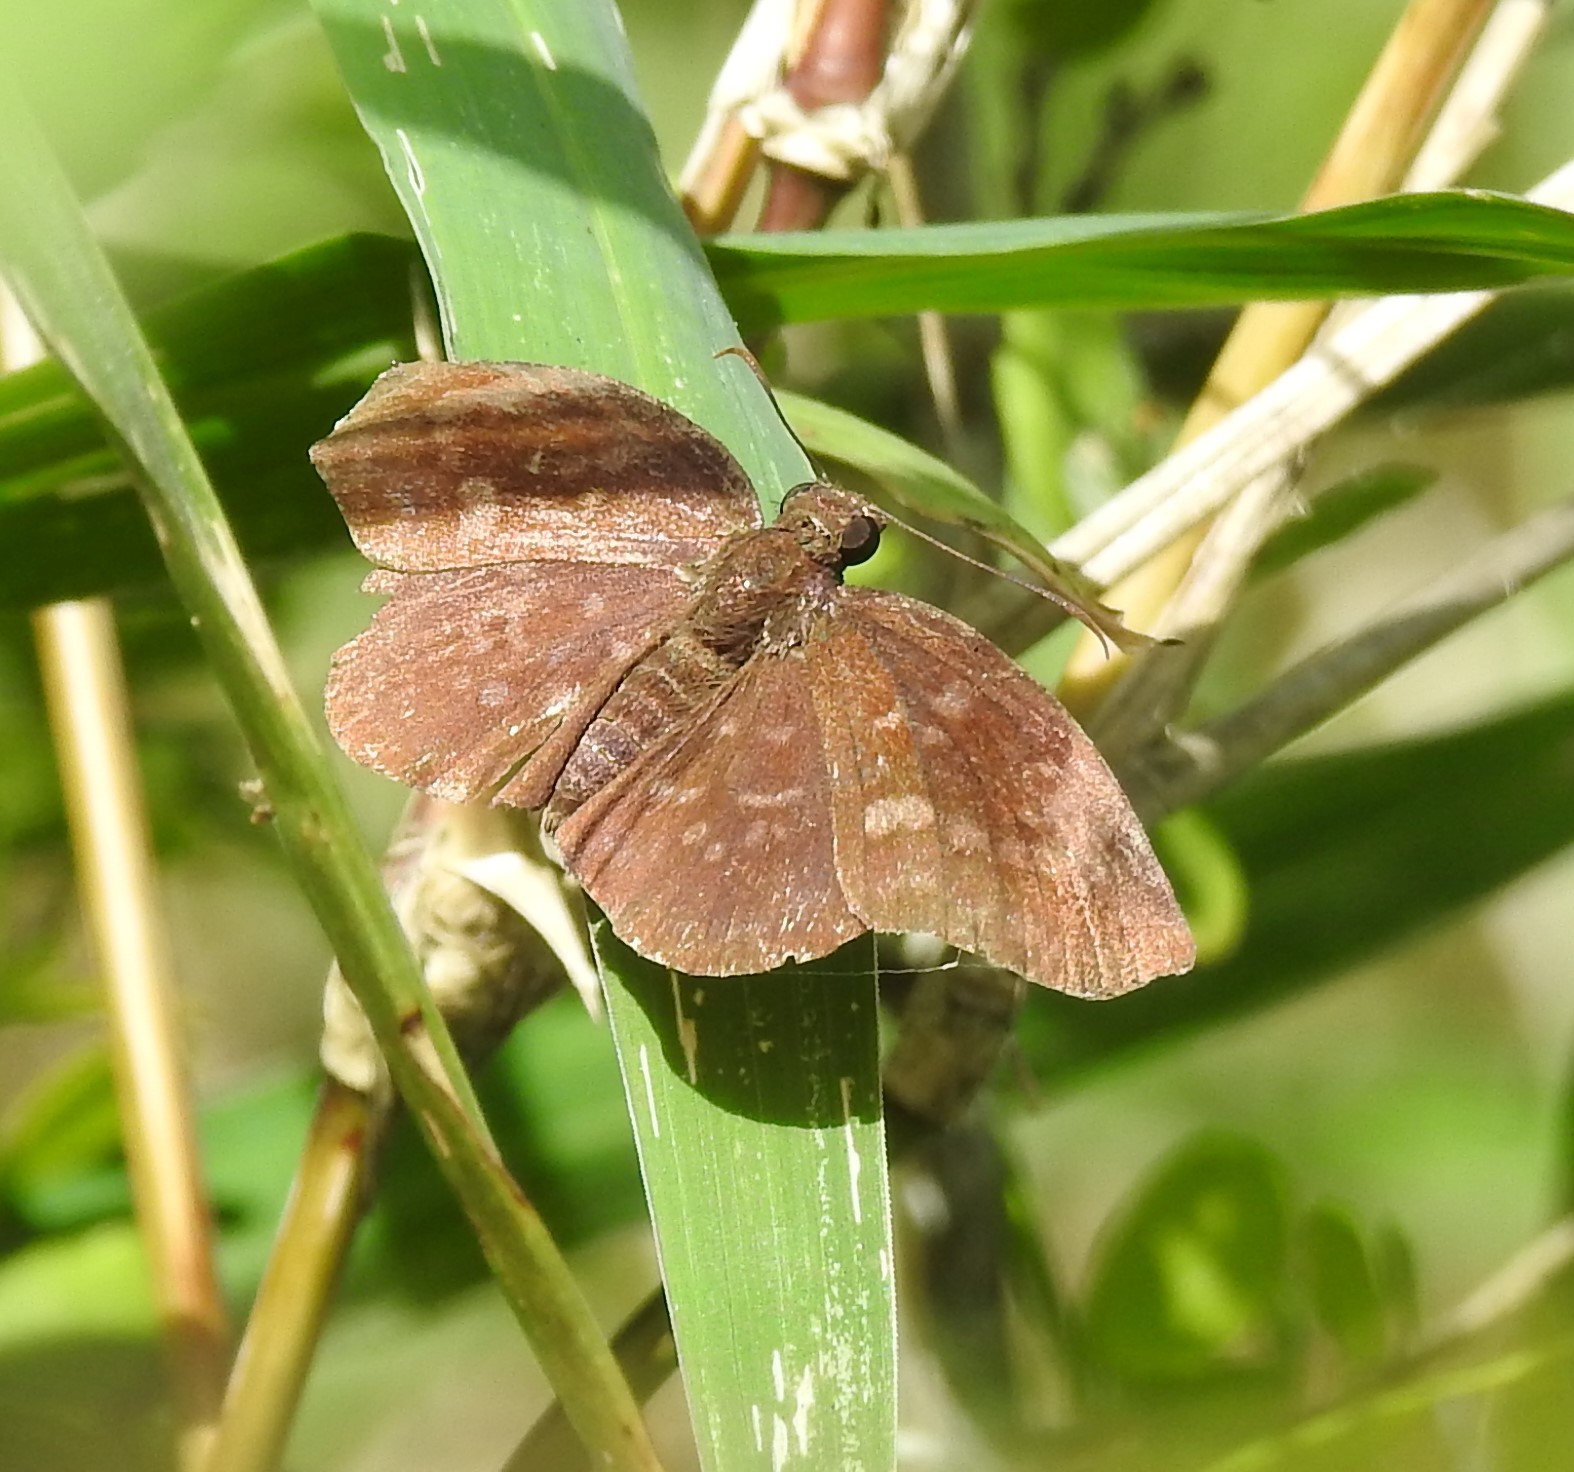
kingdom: Animalia
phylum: Arthropoda
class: Insecta
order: Lepidoptera
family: Hesperiidae
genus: Achlyodes
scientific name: Achlyodes thraso
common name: Sickle-winged skipper
